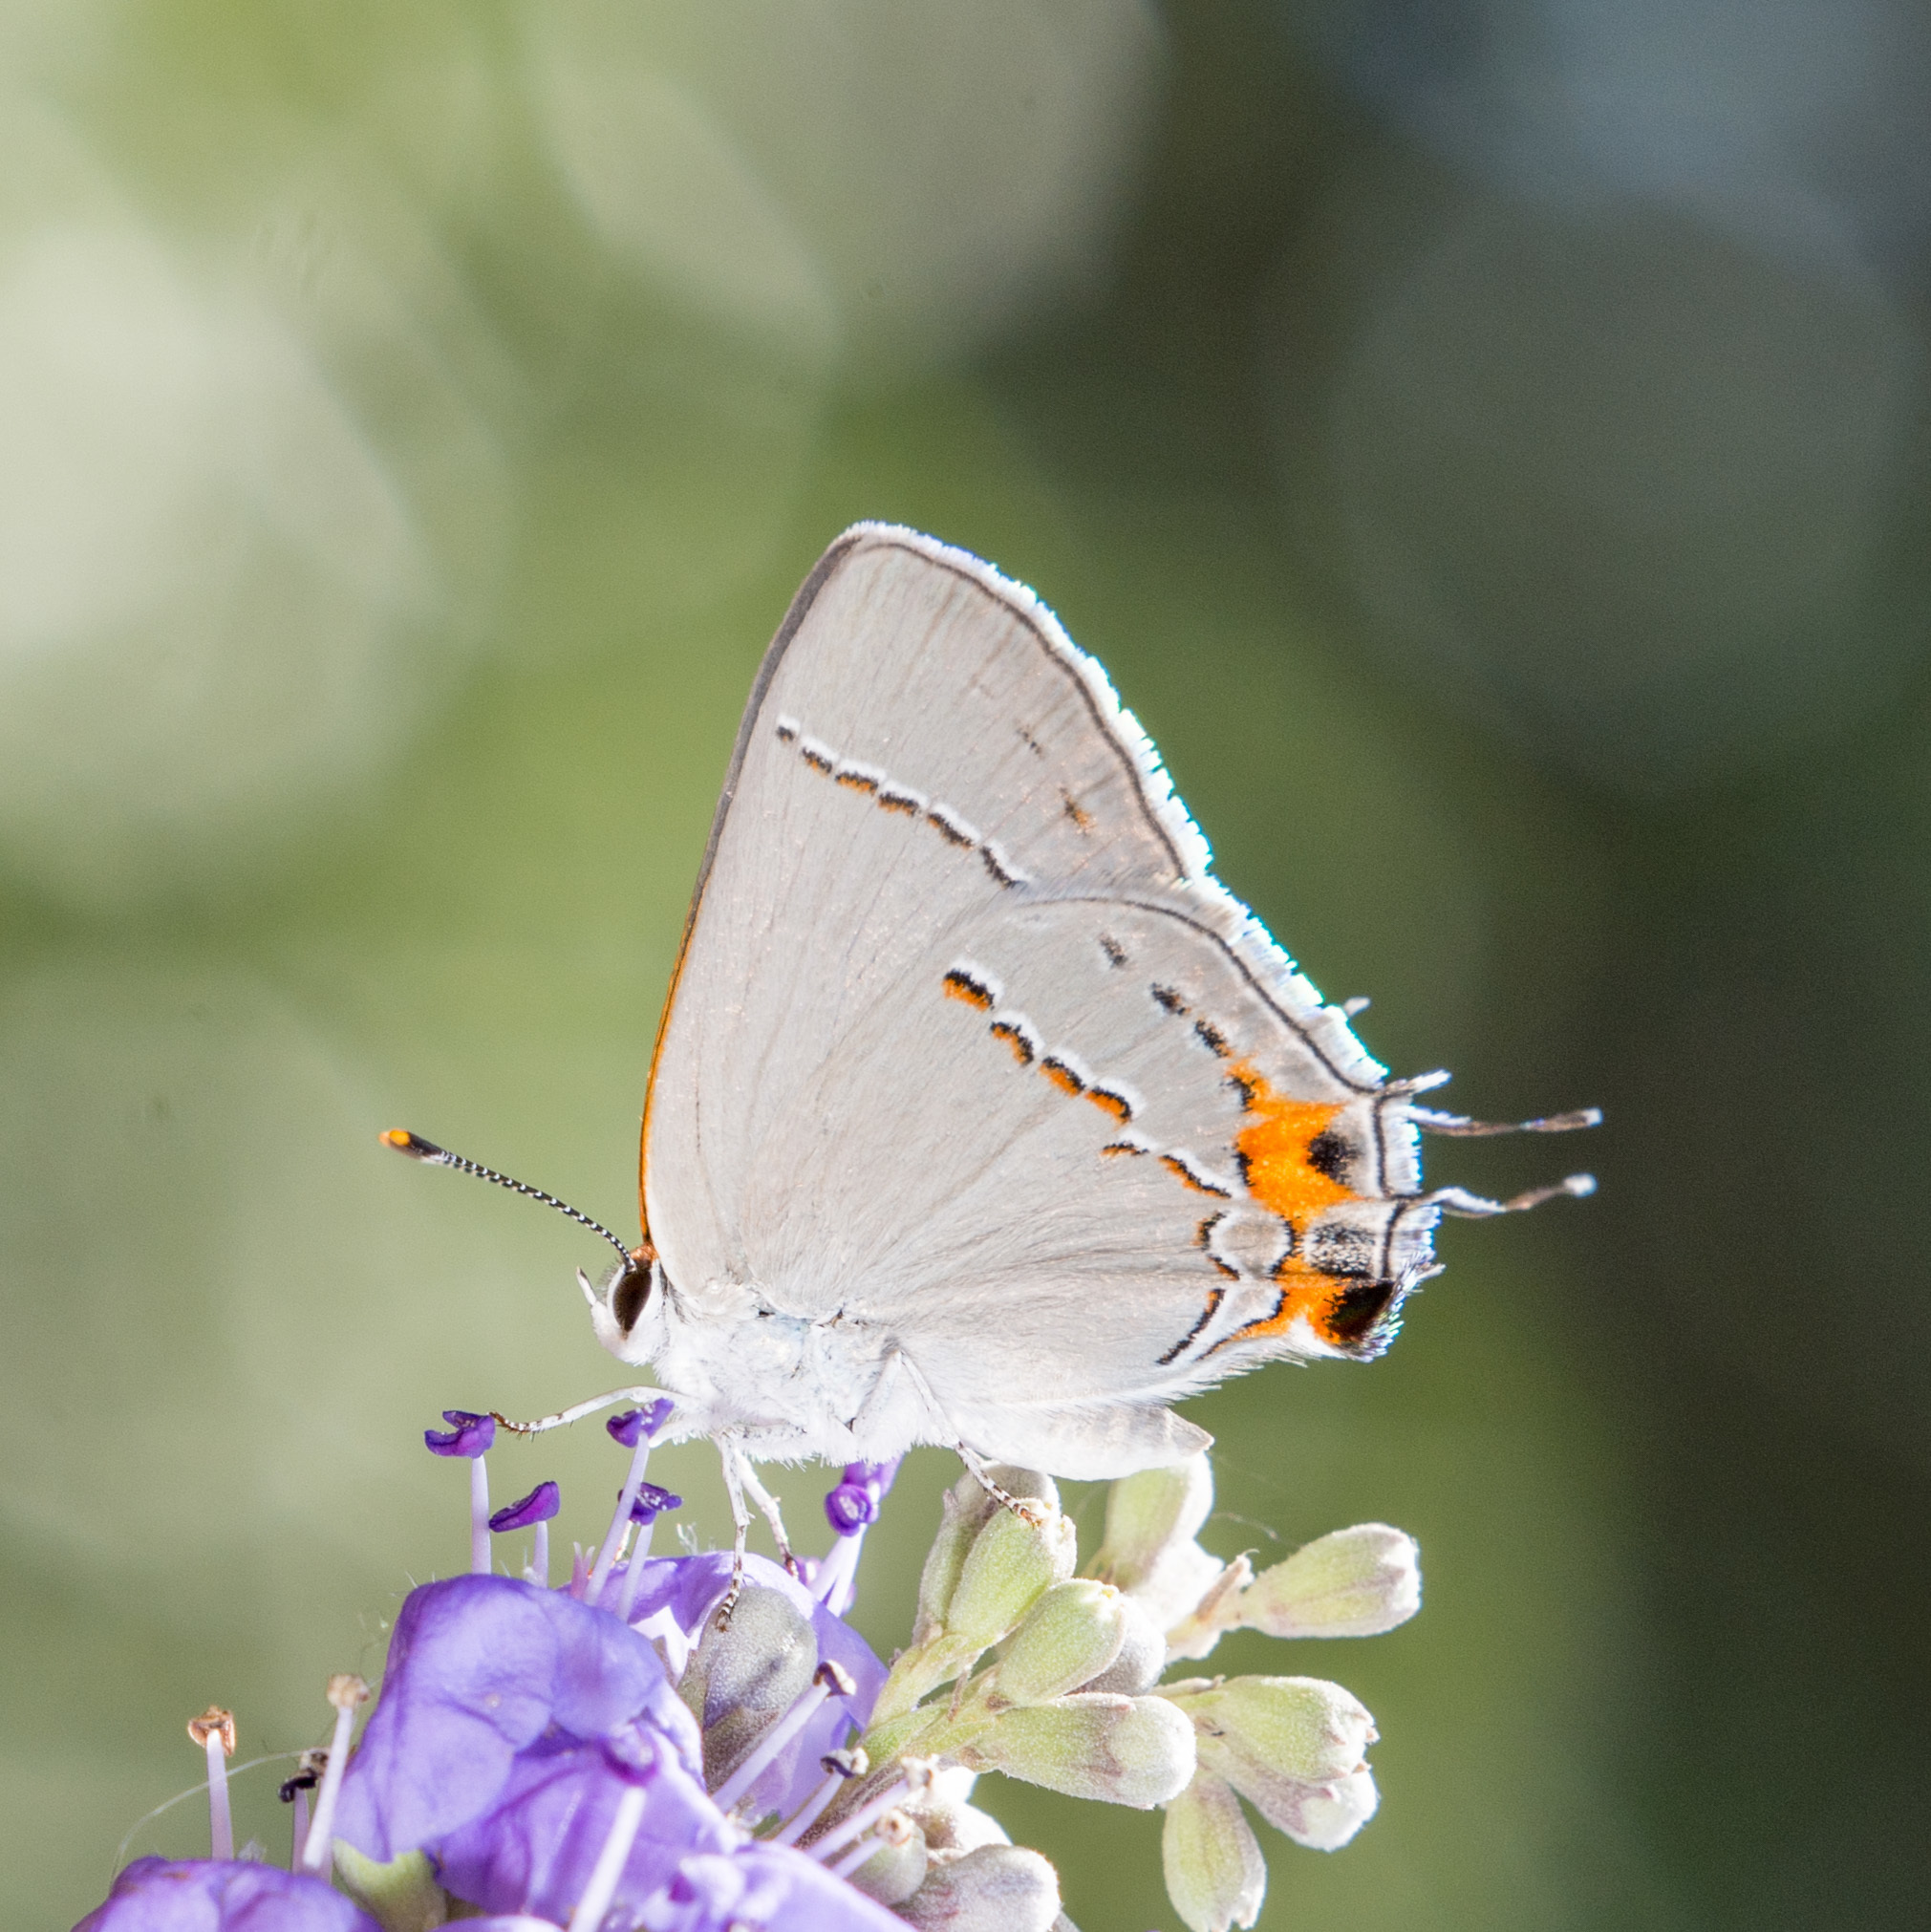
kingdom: Animalia
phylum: Arthropoda
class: Insecta
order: Lepidoptera
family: Lycaenidae
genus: Strymon
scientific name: Strymon melinus
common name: Gray hairstreak
